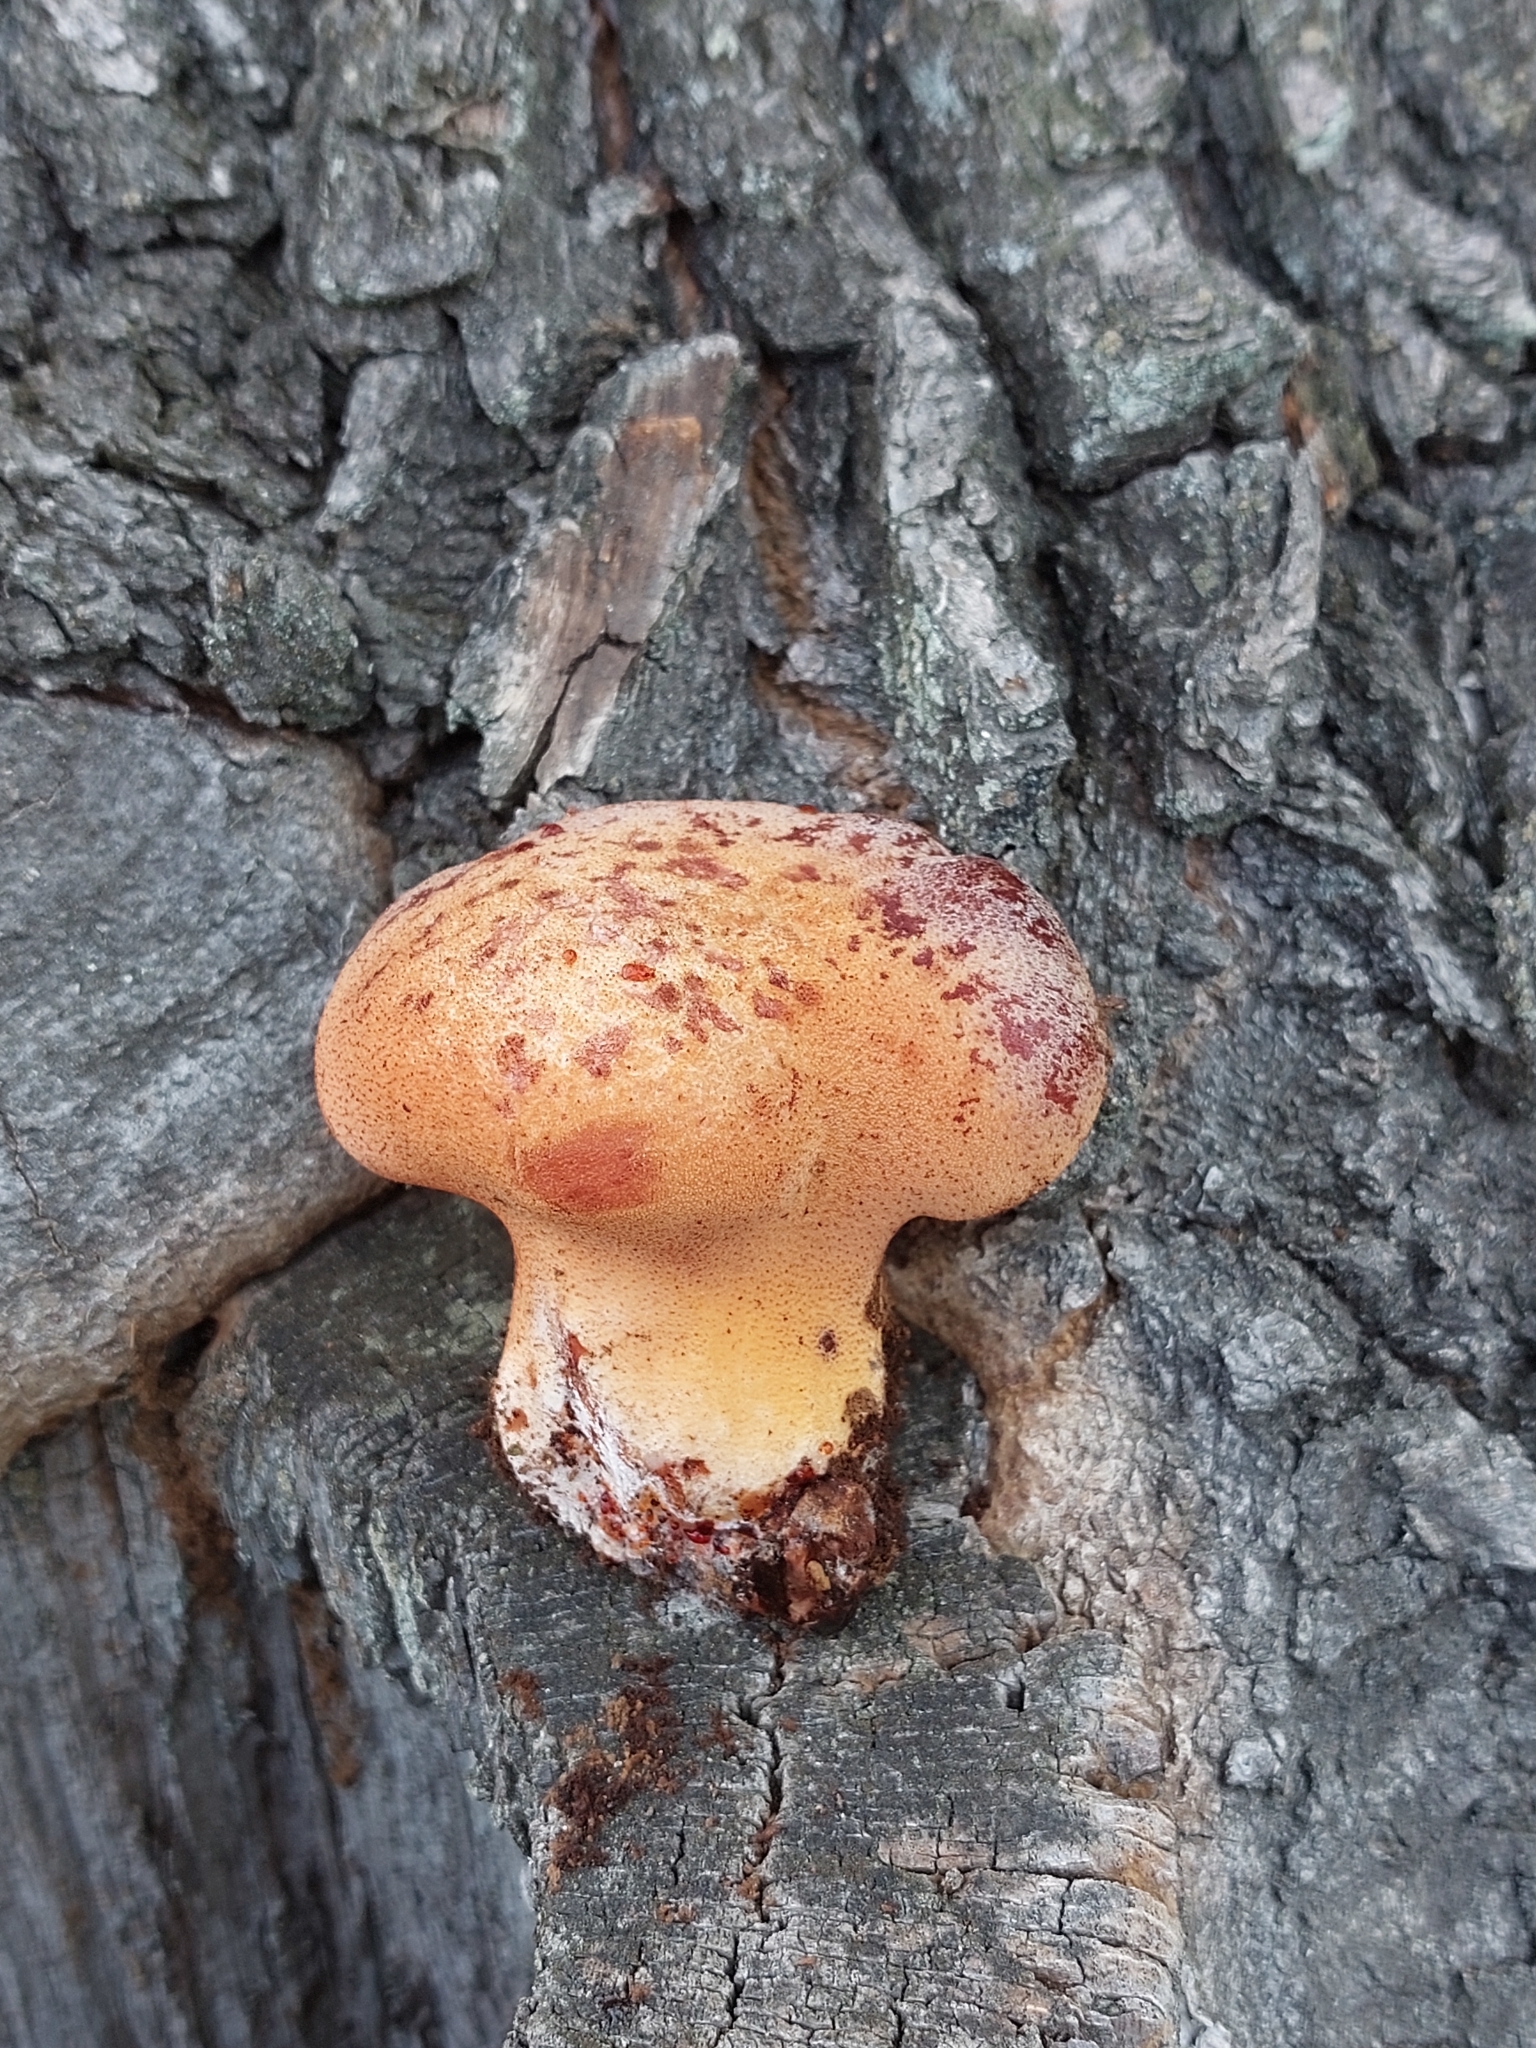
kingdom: Fungi
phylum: Basidiomycota
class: Agaricomycetes
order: Agaricales
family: Fistulinaceae
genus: Fistulina
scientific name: Fistulina hepatica
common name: Beef-steak fungus
